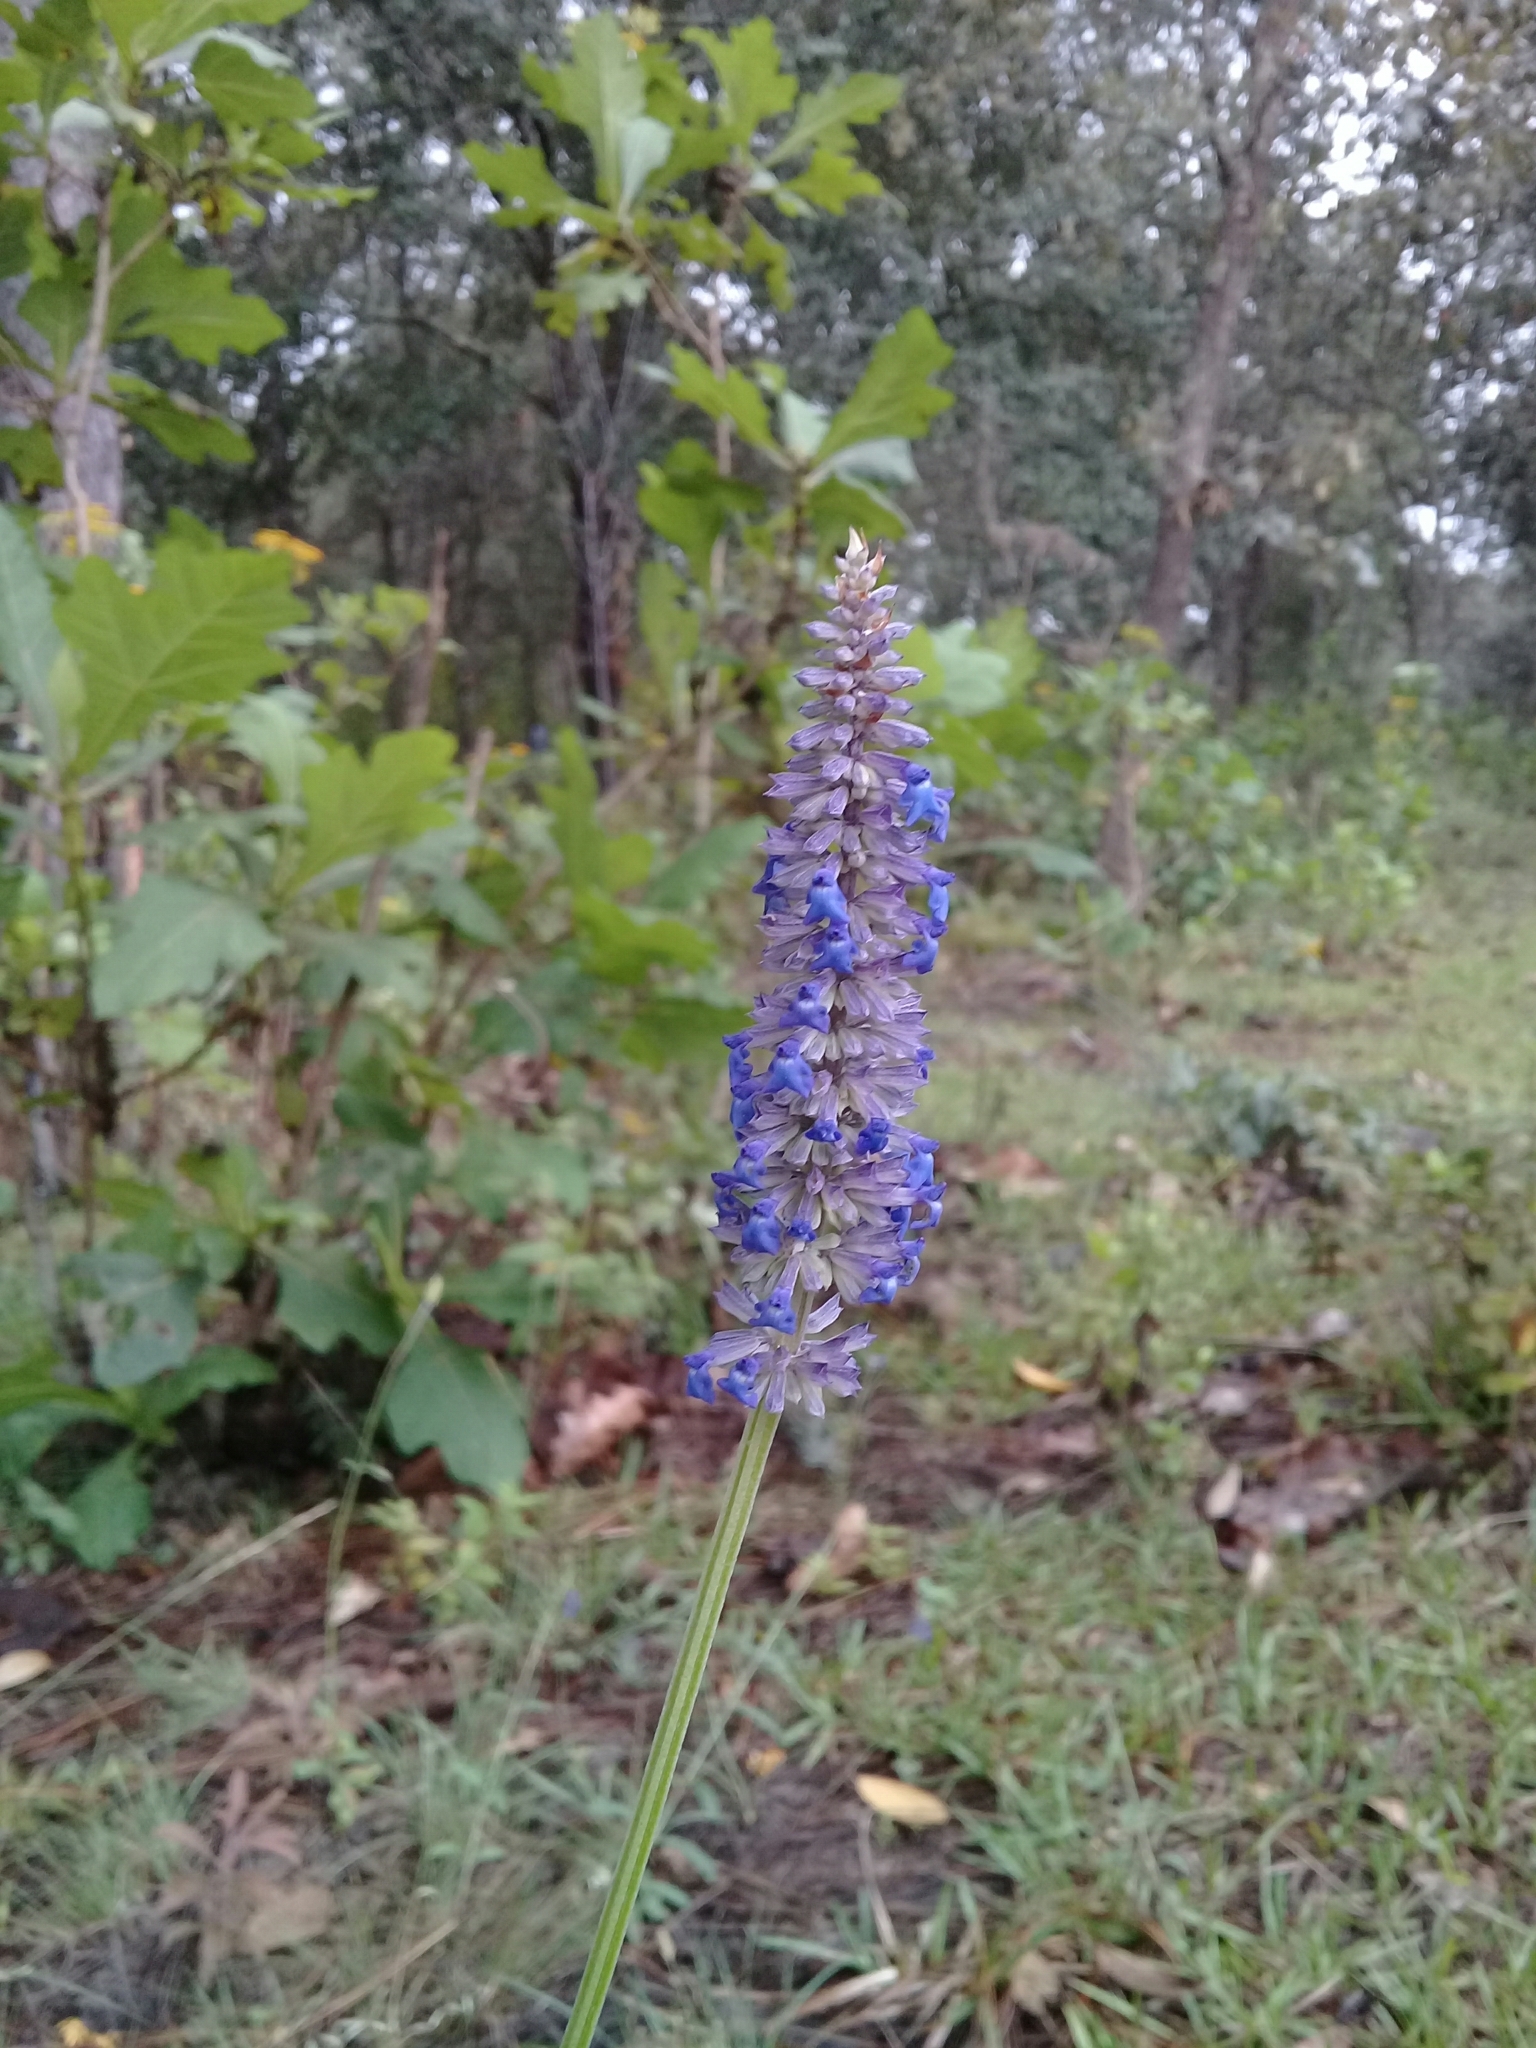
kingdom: Plantae
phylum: Tracheophyta
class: Magnoliopsida
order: Lamiales
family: Lamiaceae
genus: Salvia
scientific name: Salvia lavanduloides
